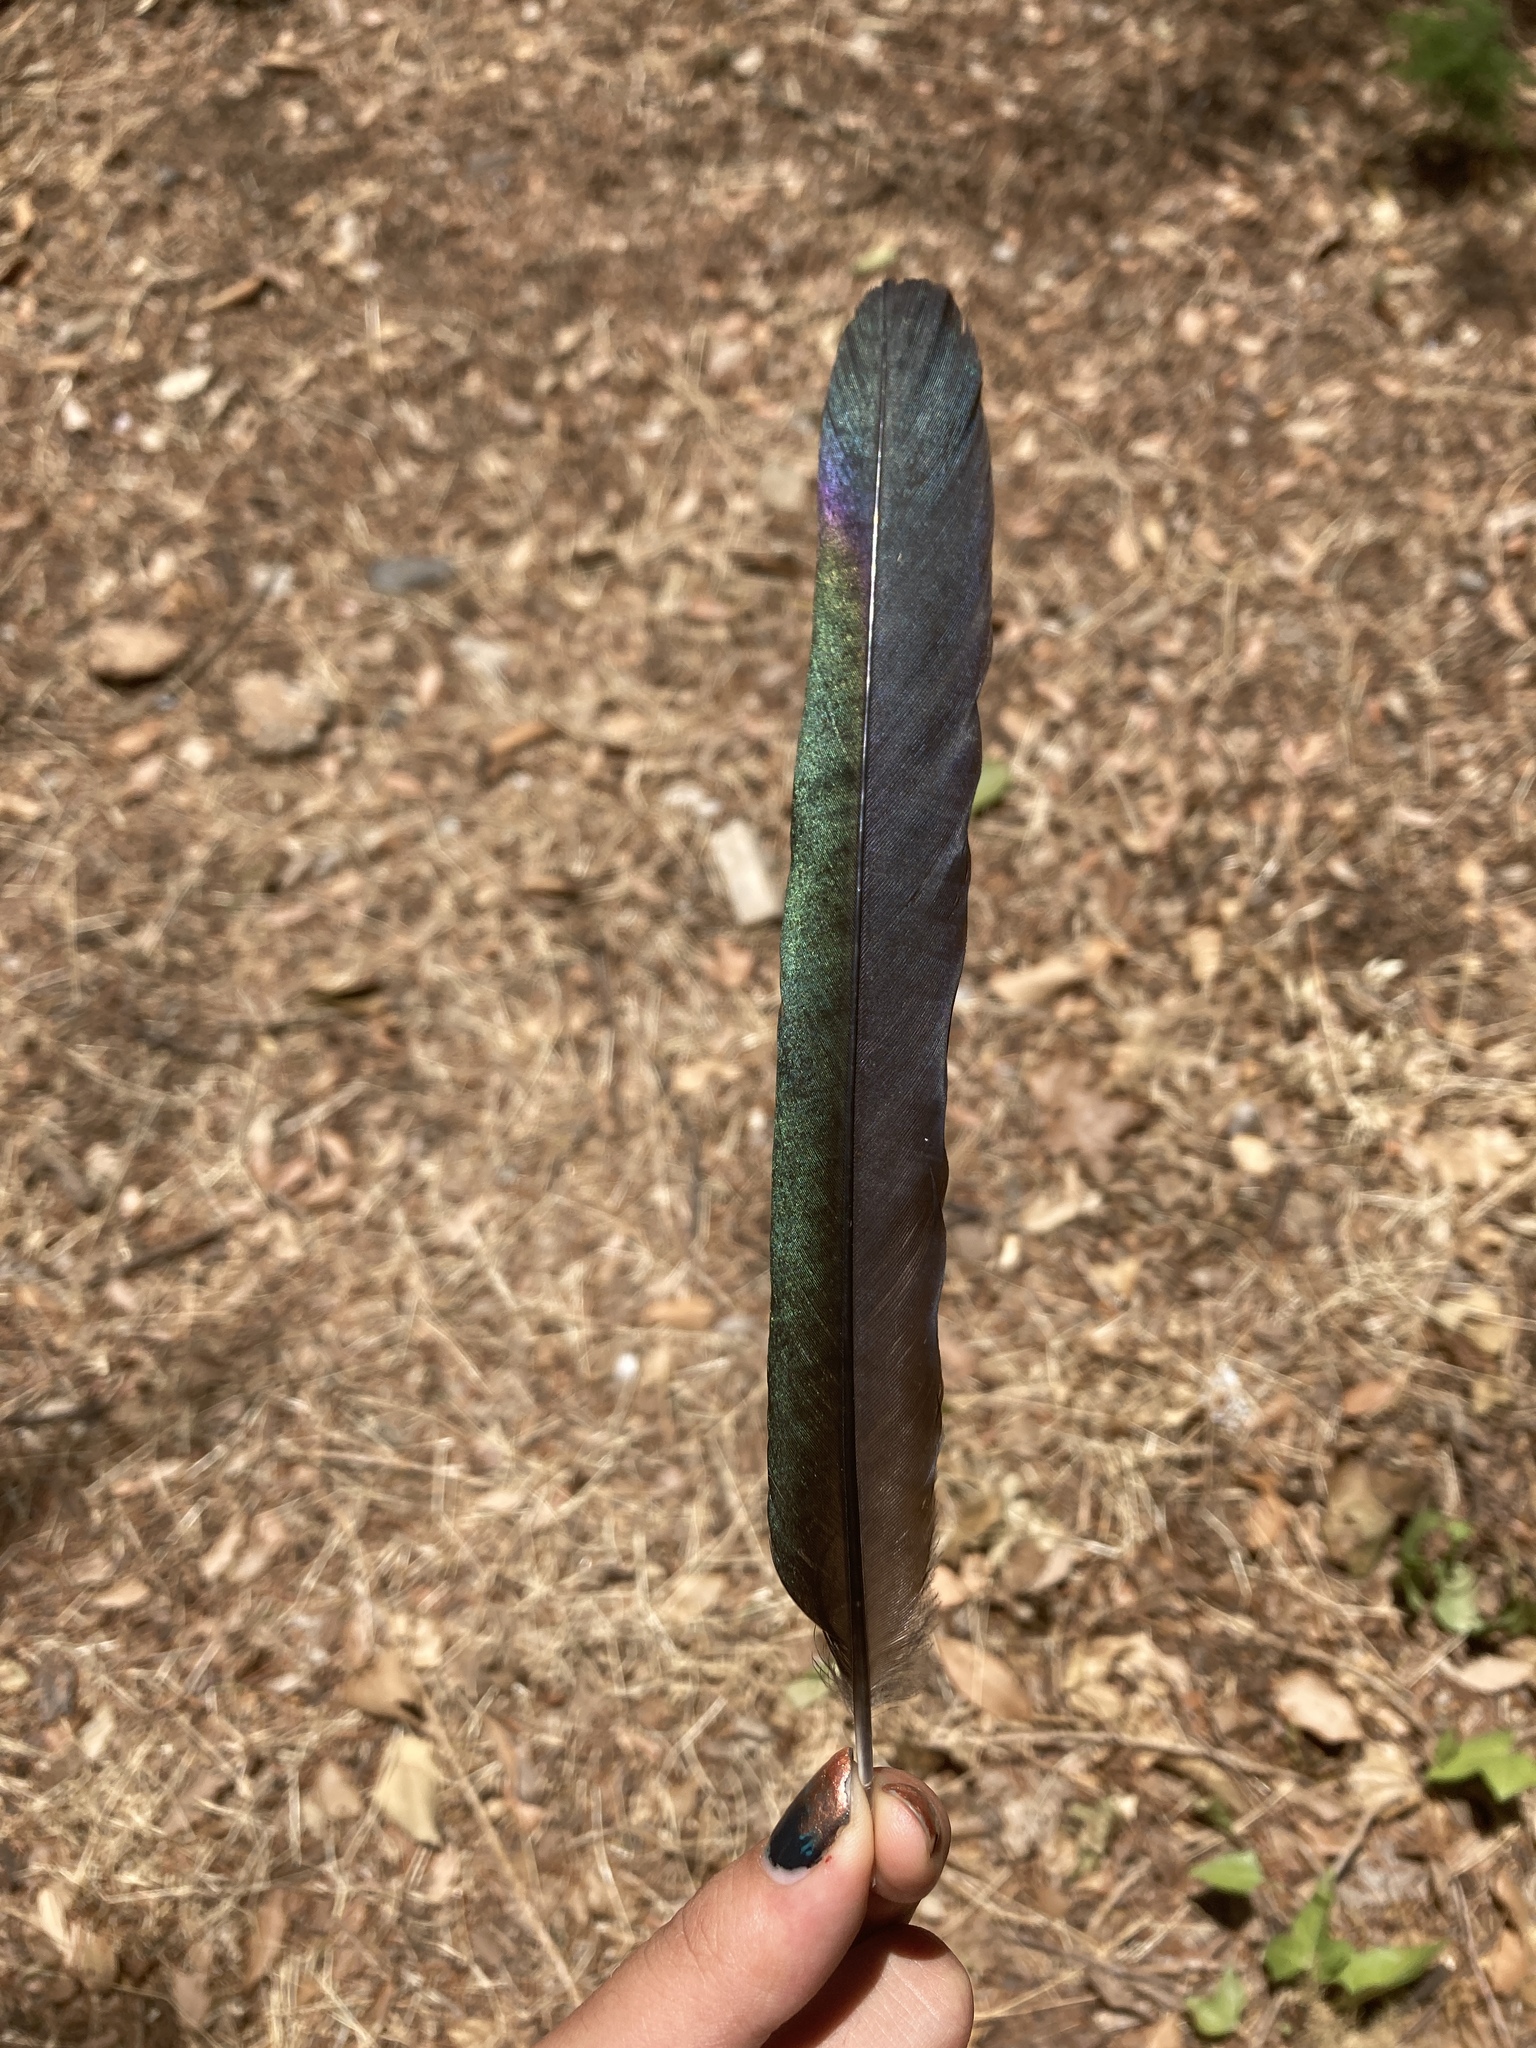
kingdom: Animalia
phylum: Chordata
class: Aves
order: Passeriformes
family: Corvidae
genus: Pica
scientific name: Pica pica
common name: Eurasian magpie
